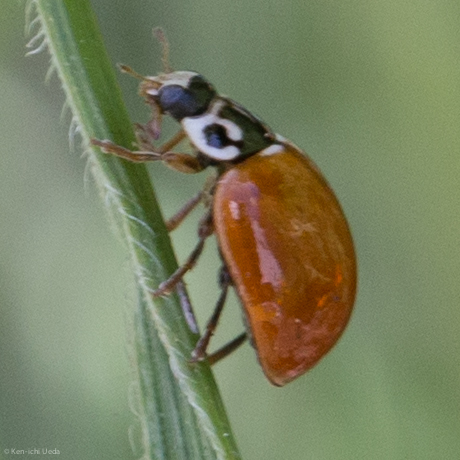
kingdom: Animalia
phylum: Arthropoda
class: Insecta
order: Coleoptera
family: Coccinellidae
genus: Cycloneda
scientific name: Cycloneda polita
